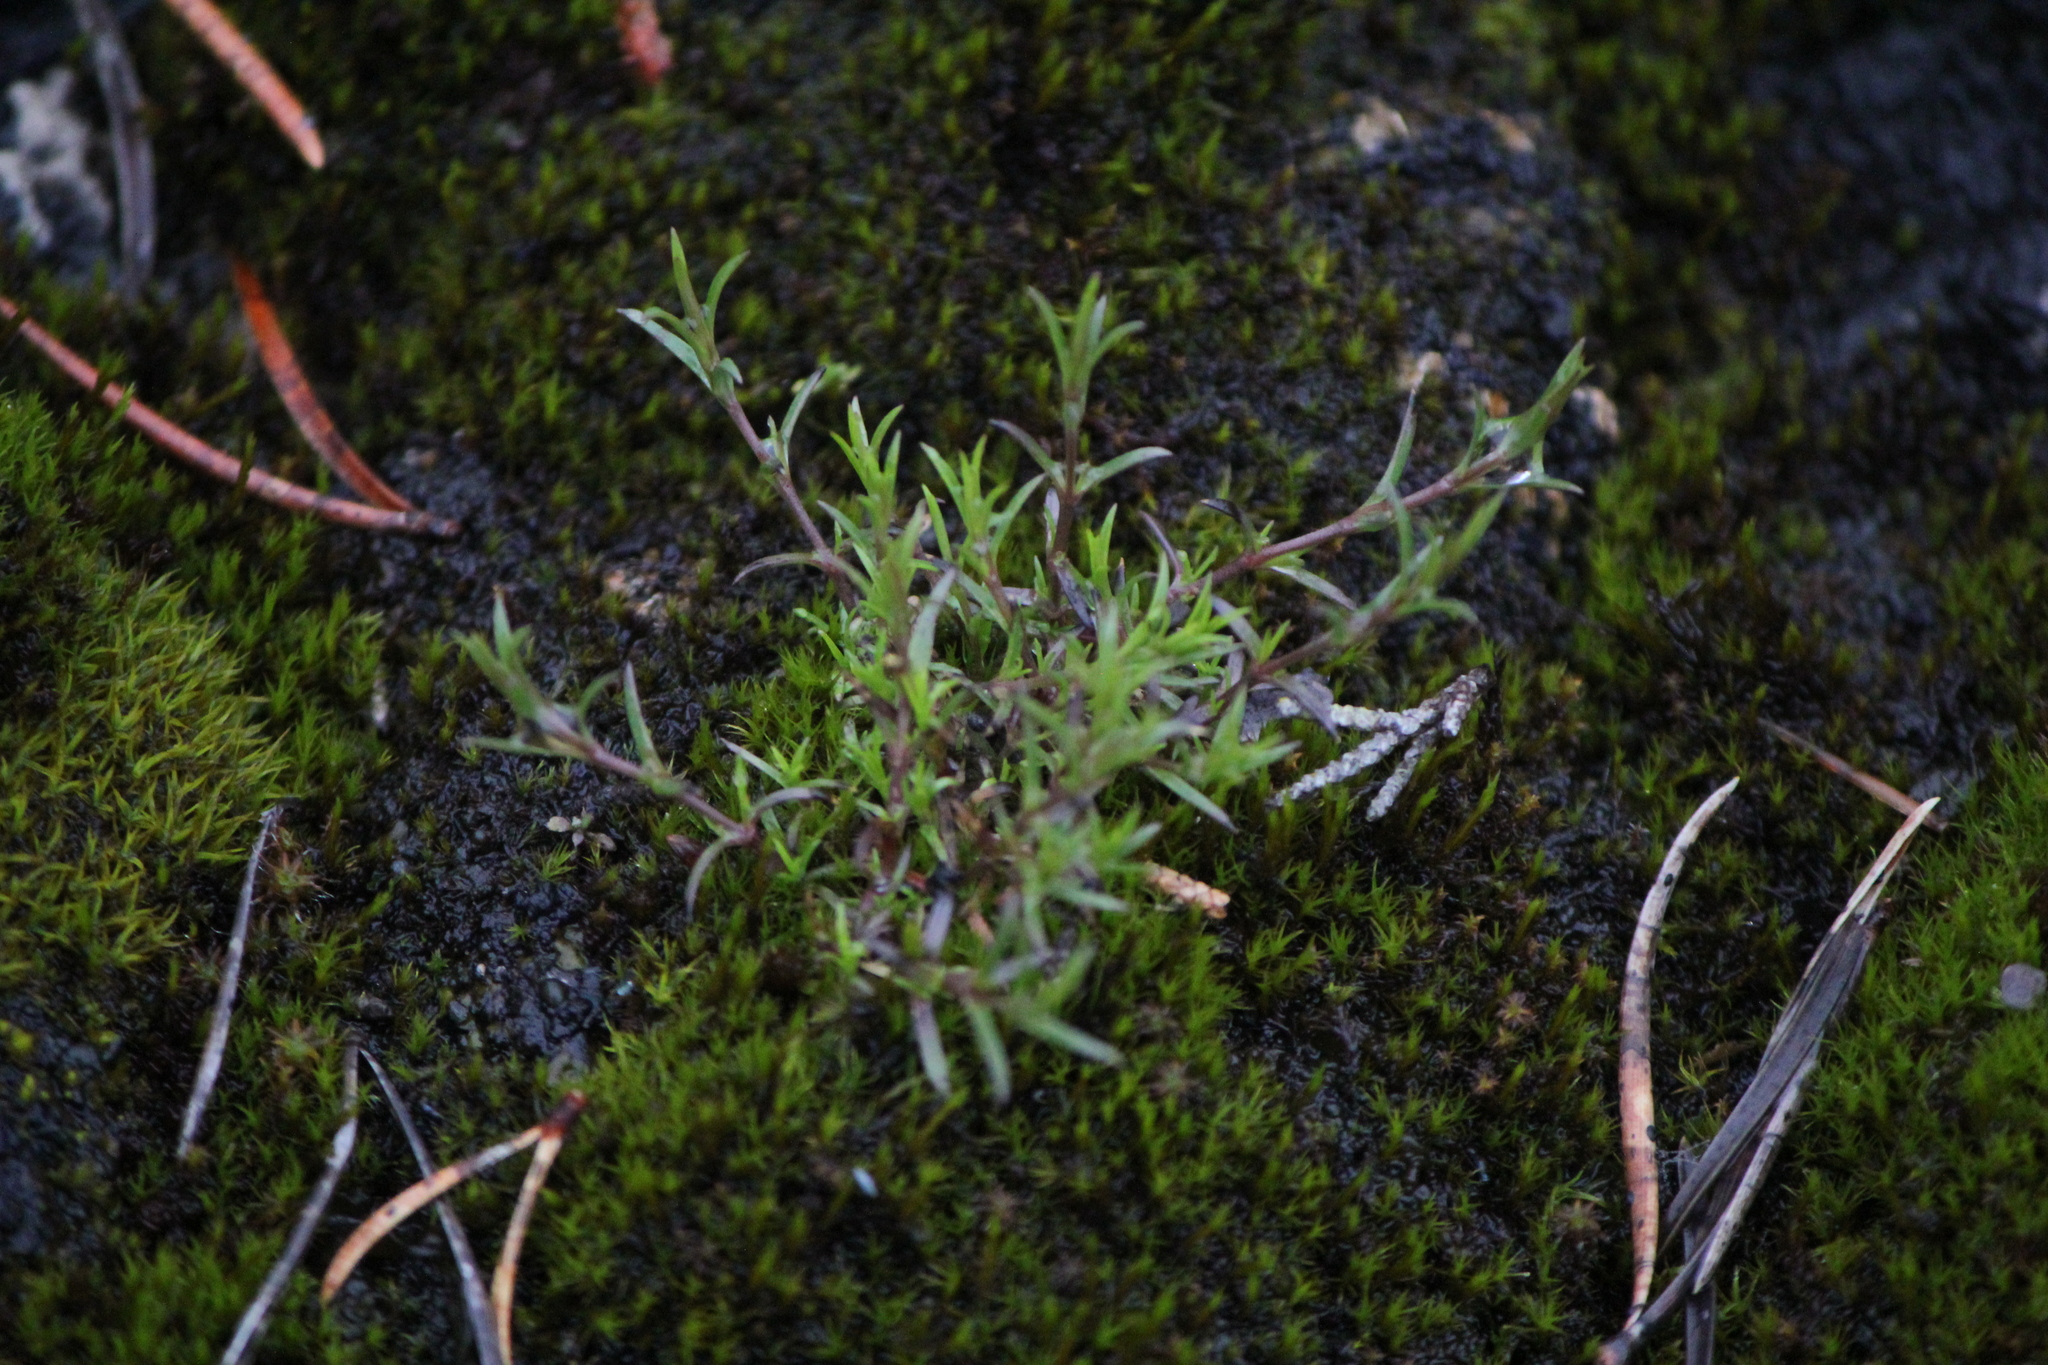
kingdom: Plantae
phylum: Tracheophyta
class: Magnoliopsida
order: Caryophyllales
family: Caryophyllaceae
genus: Sabulina
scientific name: Sabulina michauxii
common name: Michaux's stitchwort
